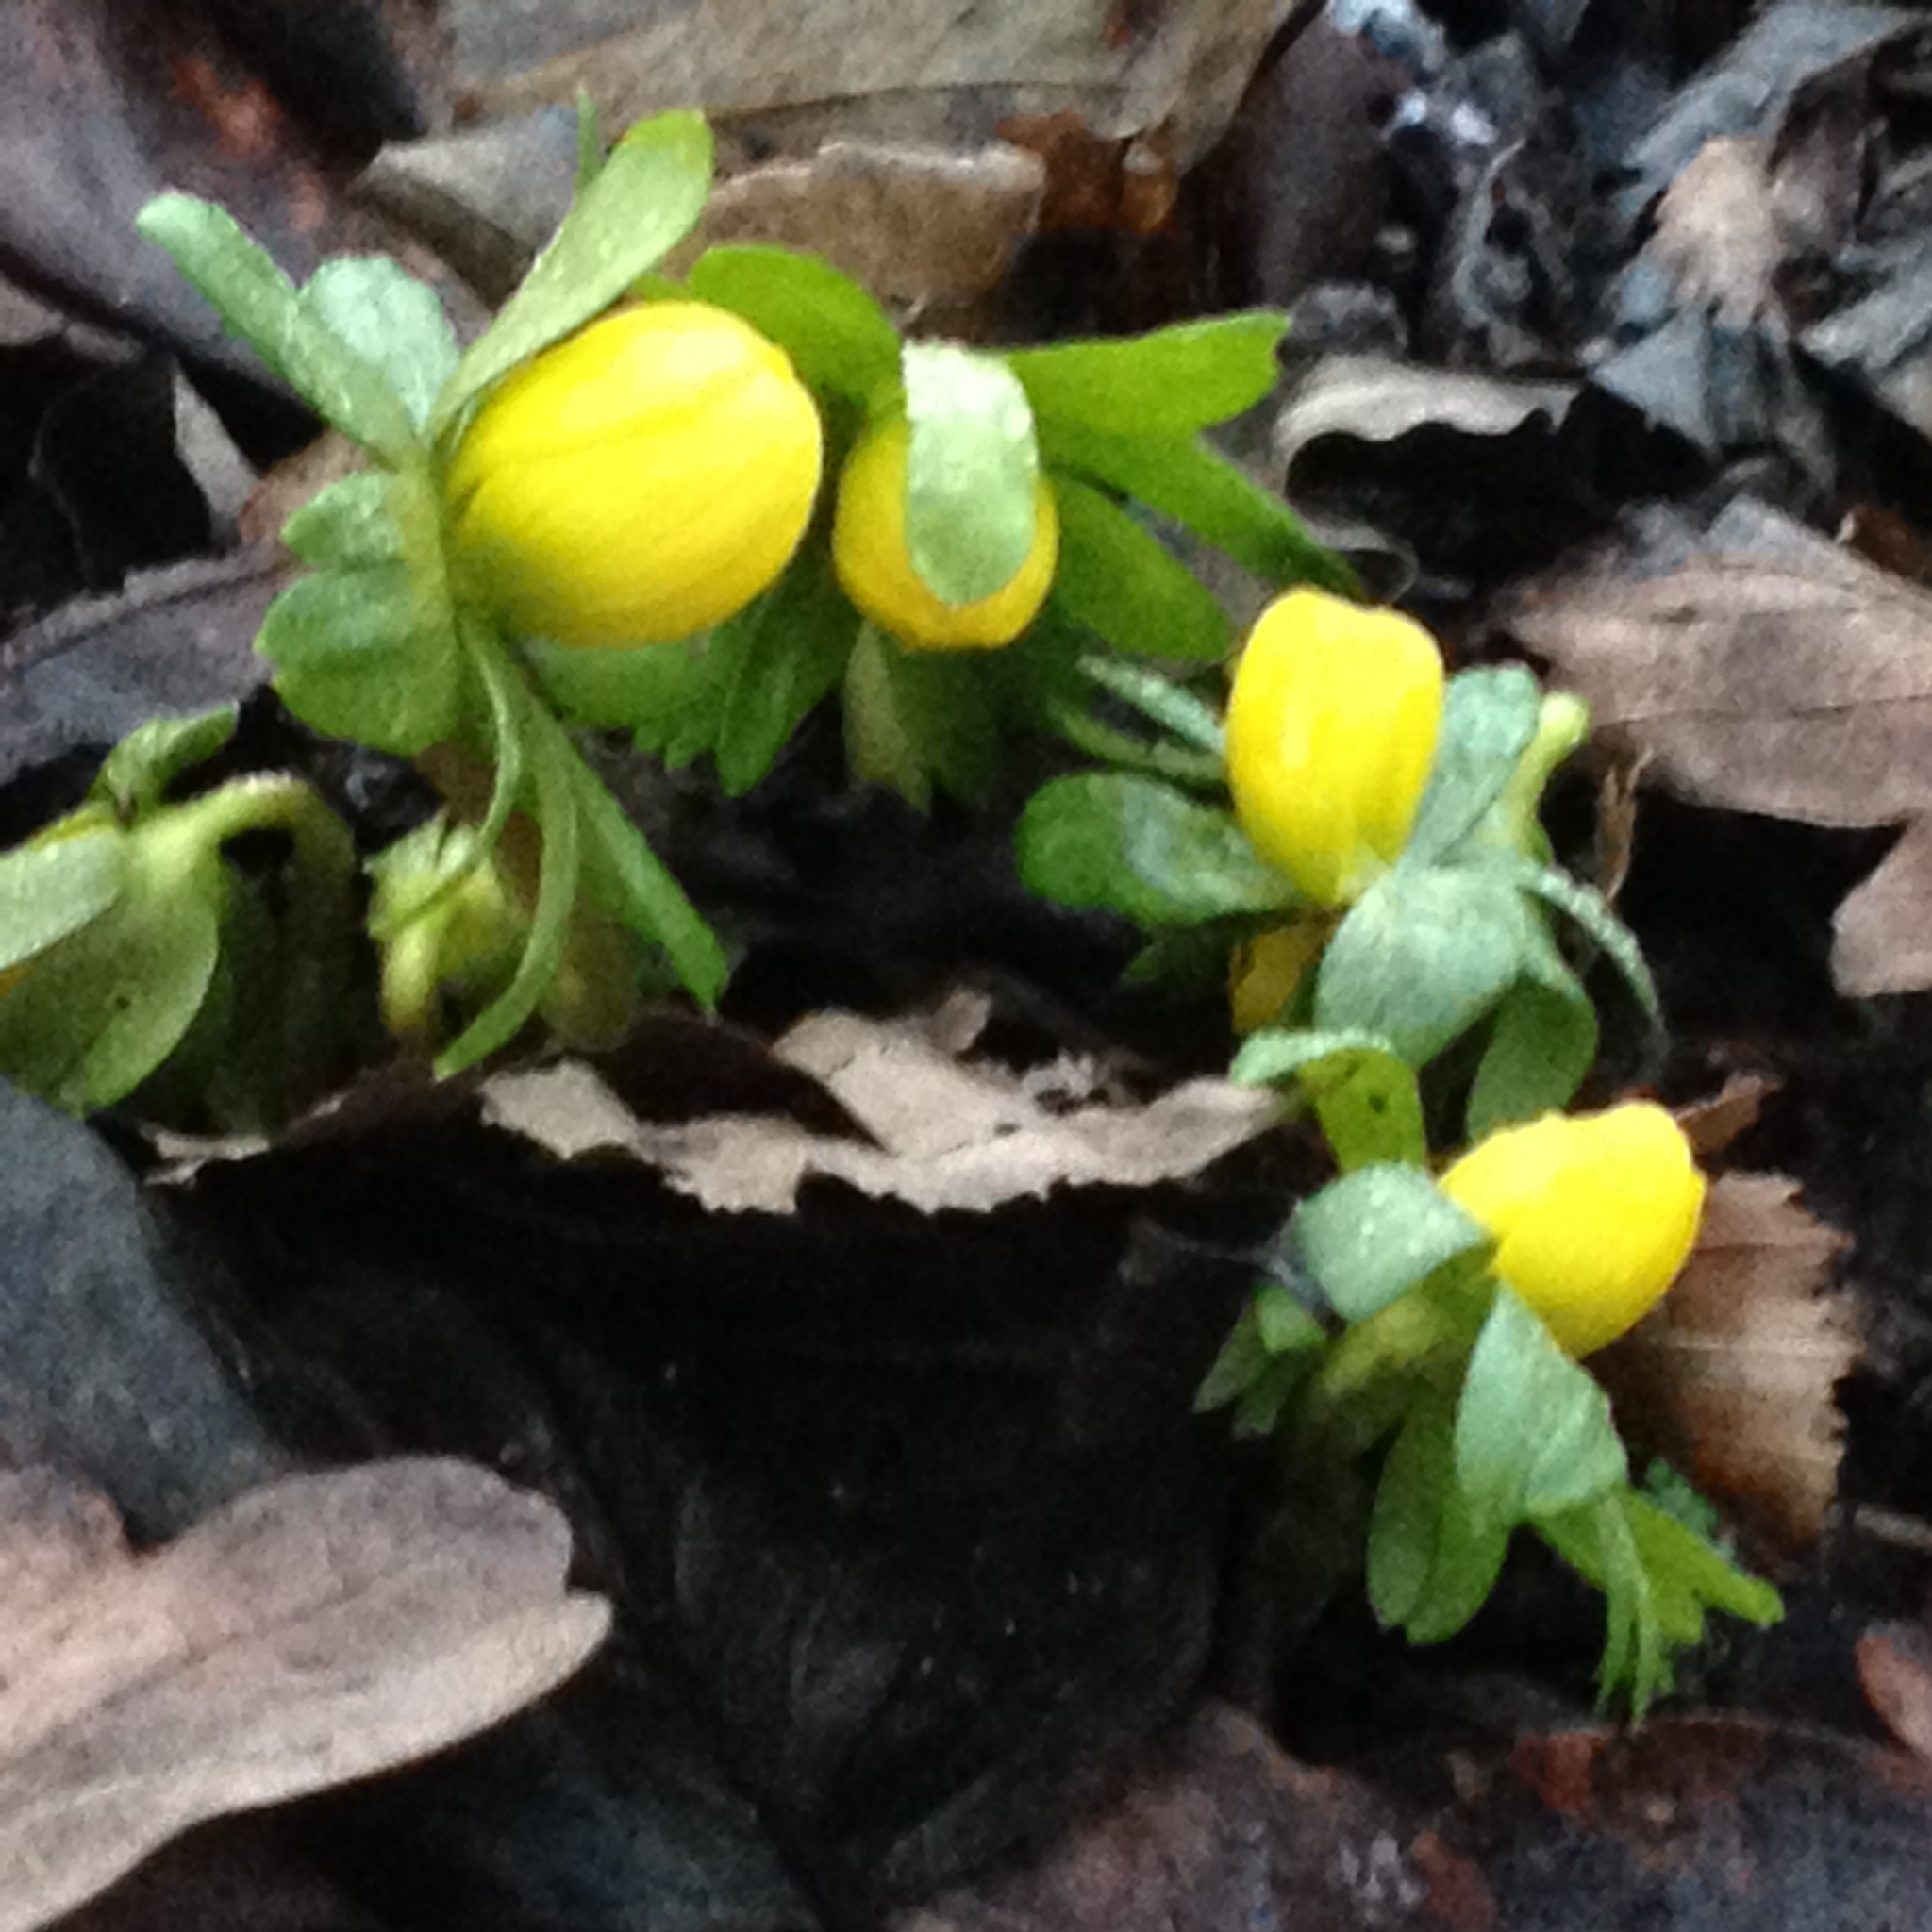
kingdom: Plantae
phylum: Tracheophyta
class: Magnoliopsida
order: Ranunculales
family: Ranunculaceae
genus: Eranthis
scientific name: Eranthis hyemalis
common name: Winter aconite
